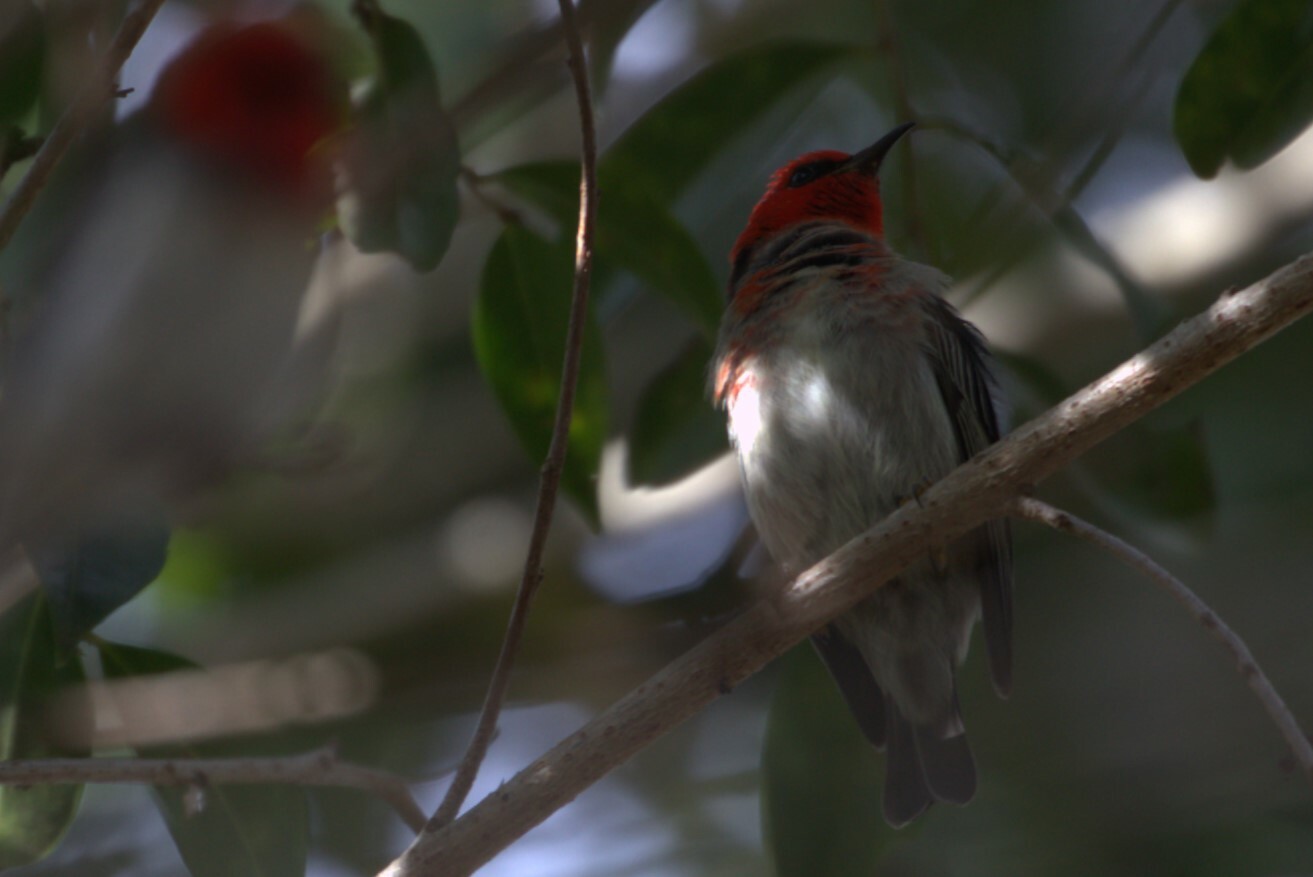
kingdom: Animalia
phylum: Chordata
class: Aves
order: Passeriformes
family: Meliphagidae
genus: Myzomela
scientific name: Myzomela sanguinolenta
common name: Scarlet myzomela
